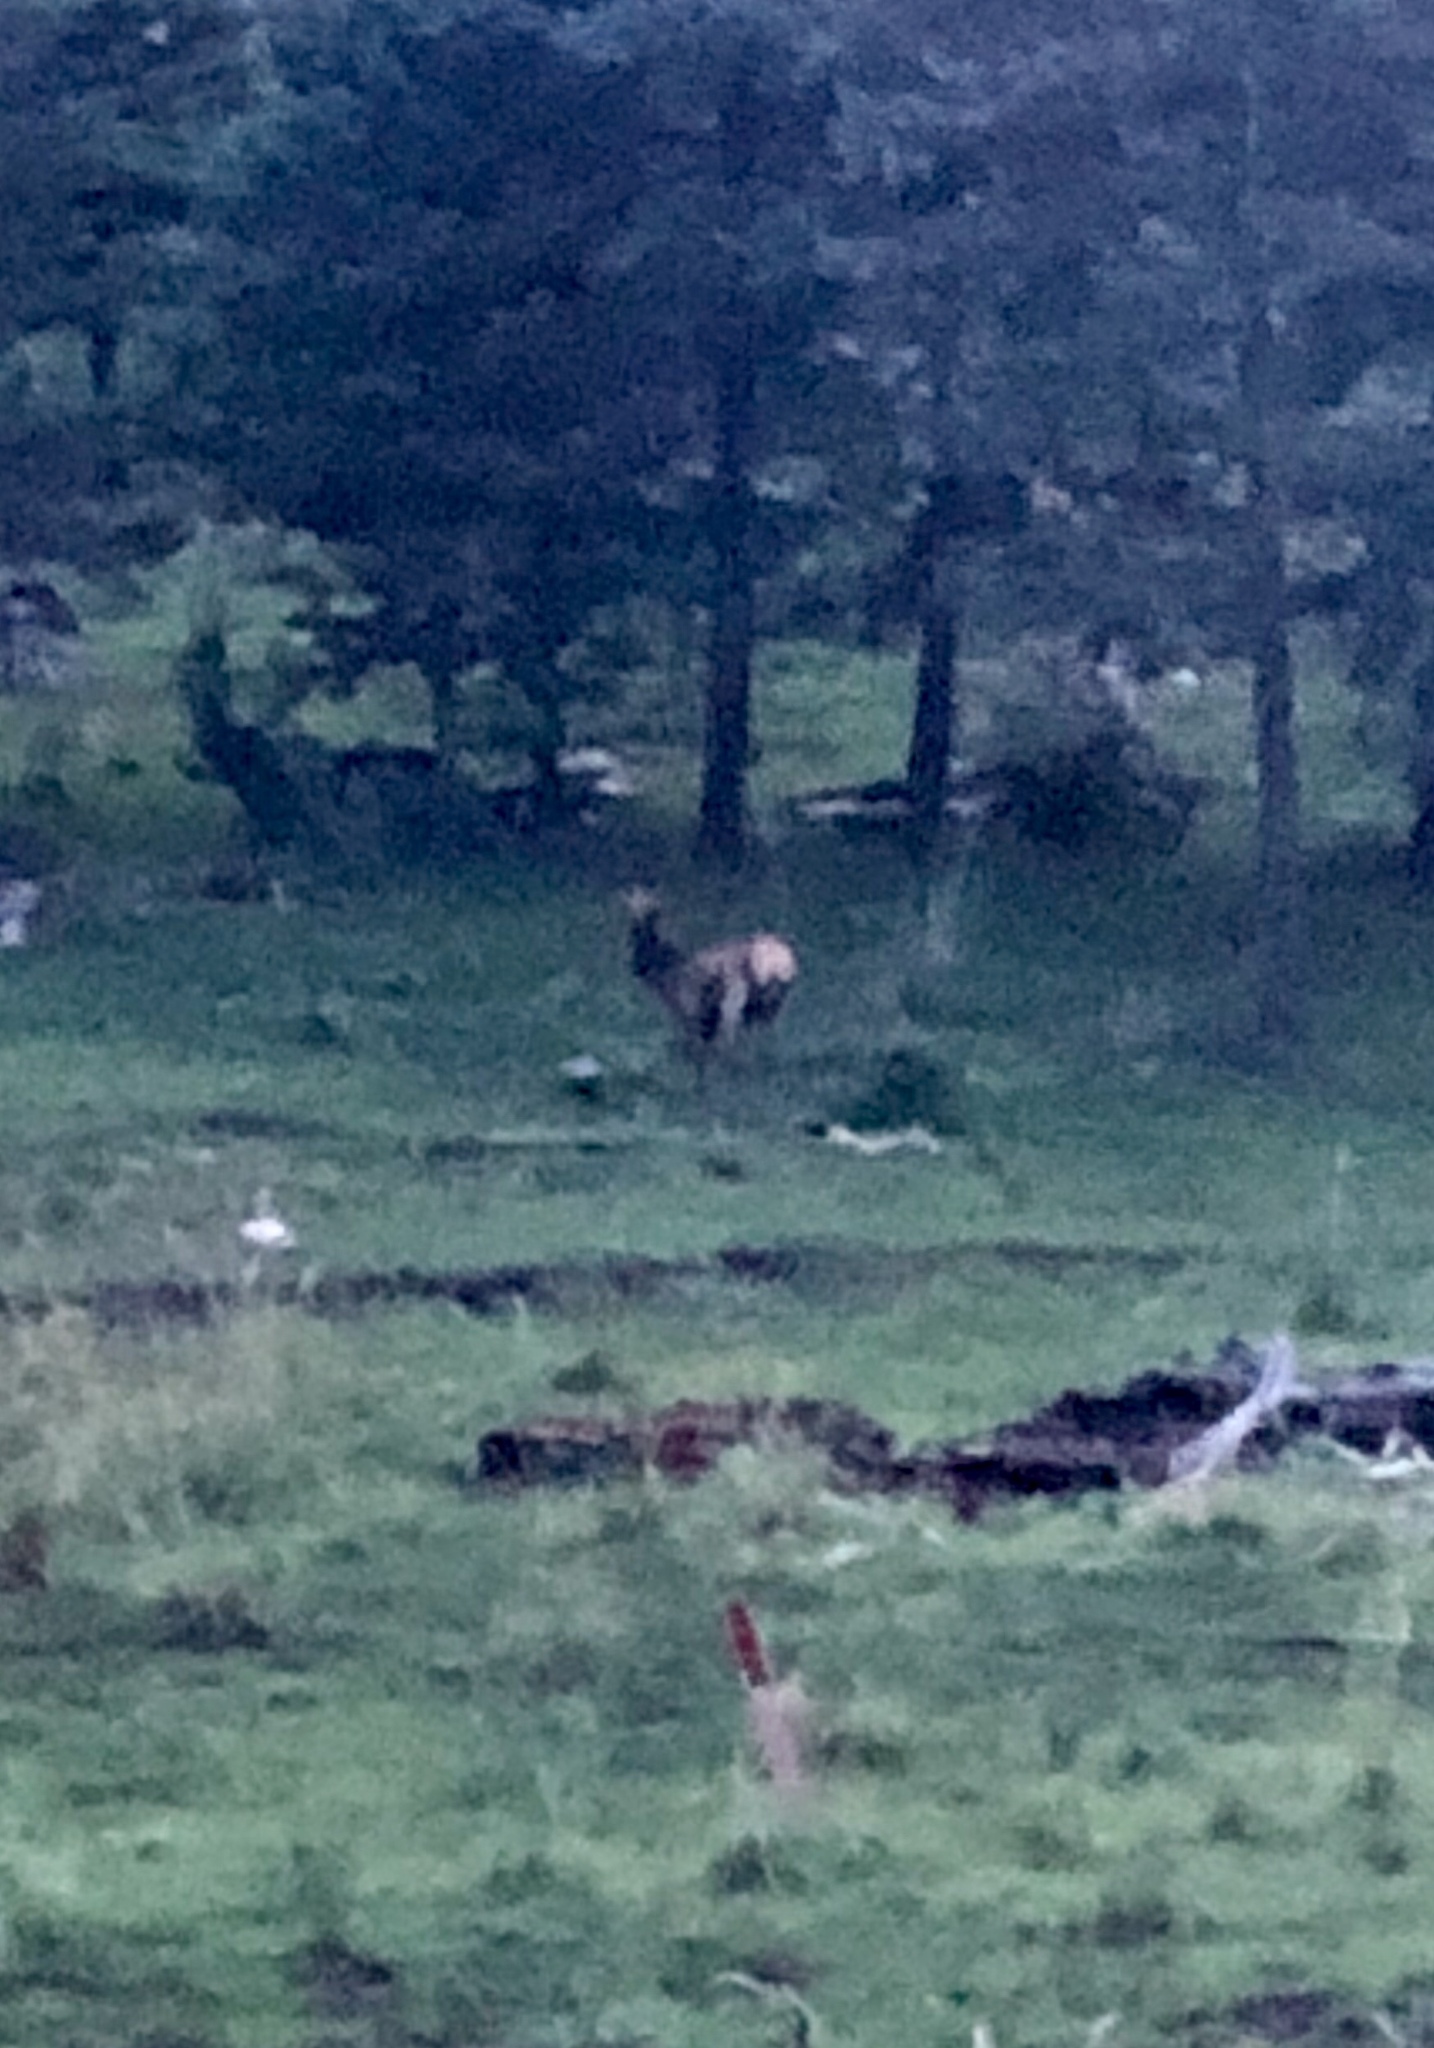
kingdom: Animalia
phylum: Chordata
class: Mammalia
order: Artiodactyla
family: Cervidae
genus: Cervus
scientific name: Cervus elaphus
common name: Red deer
